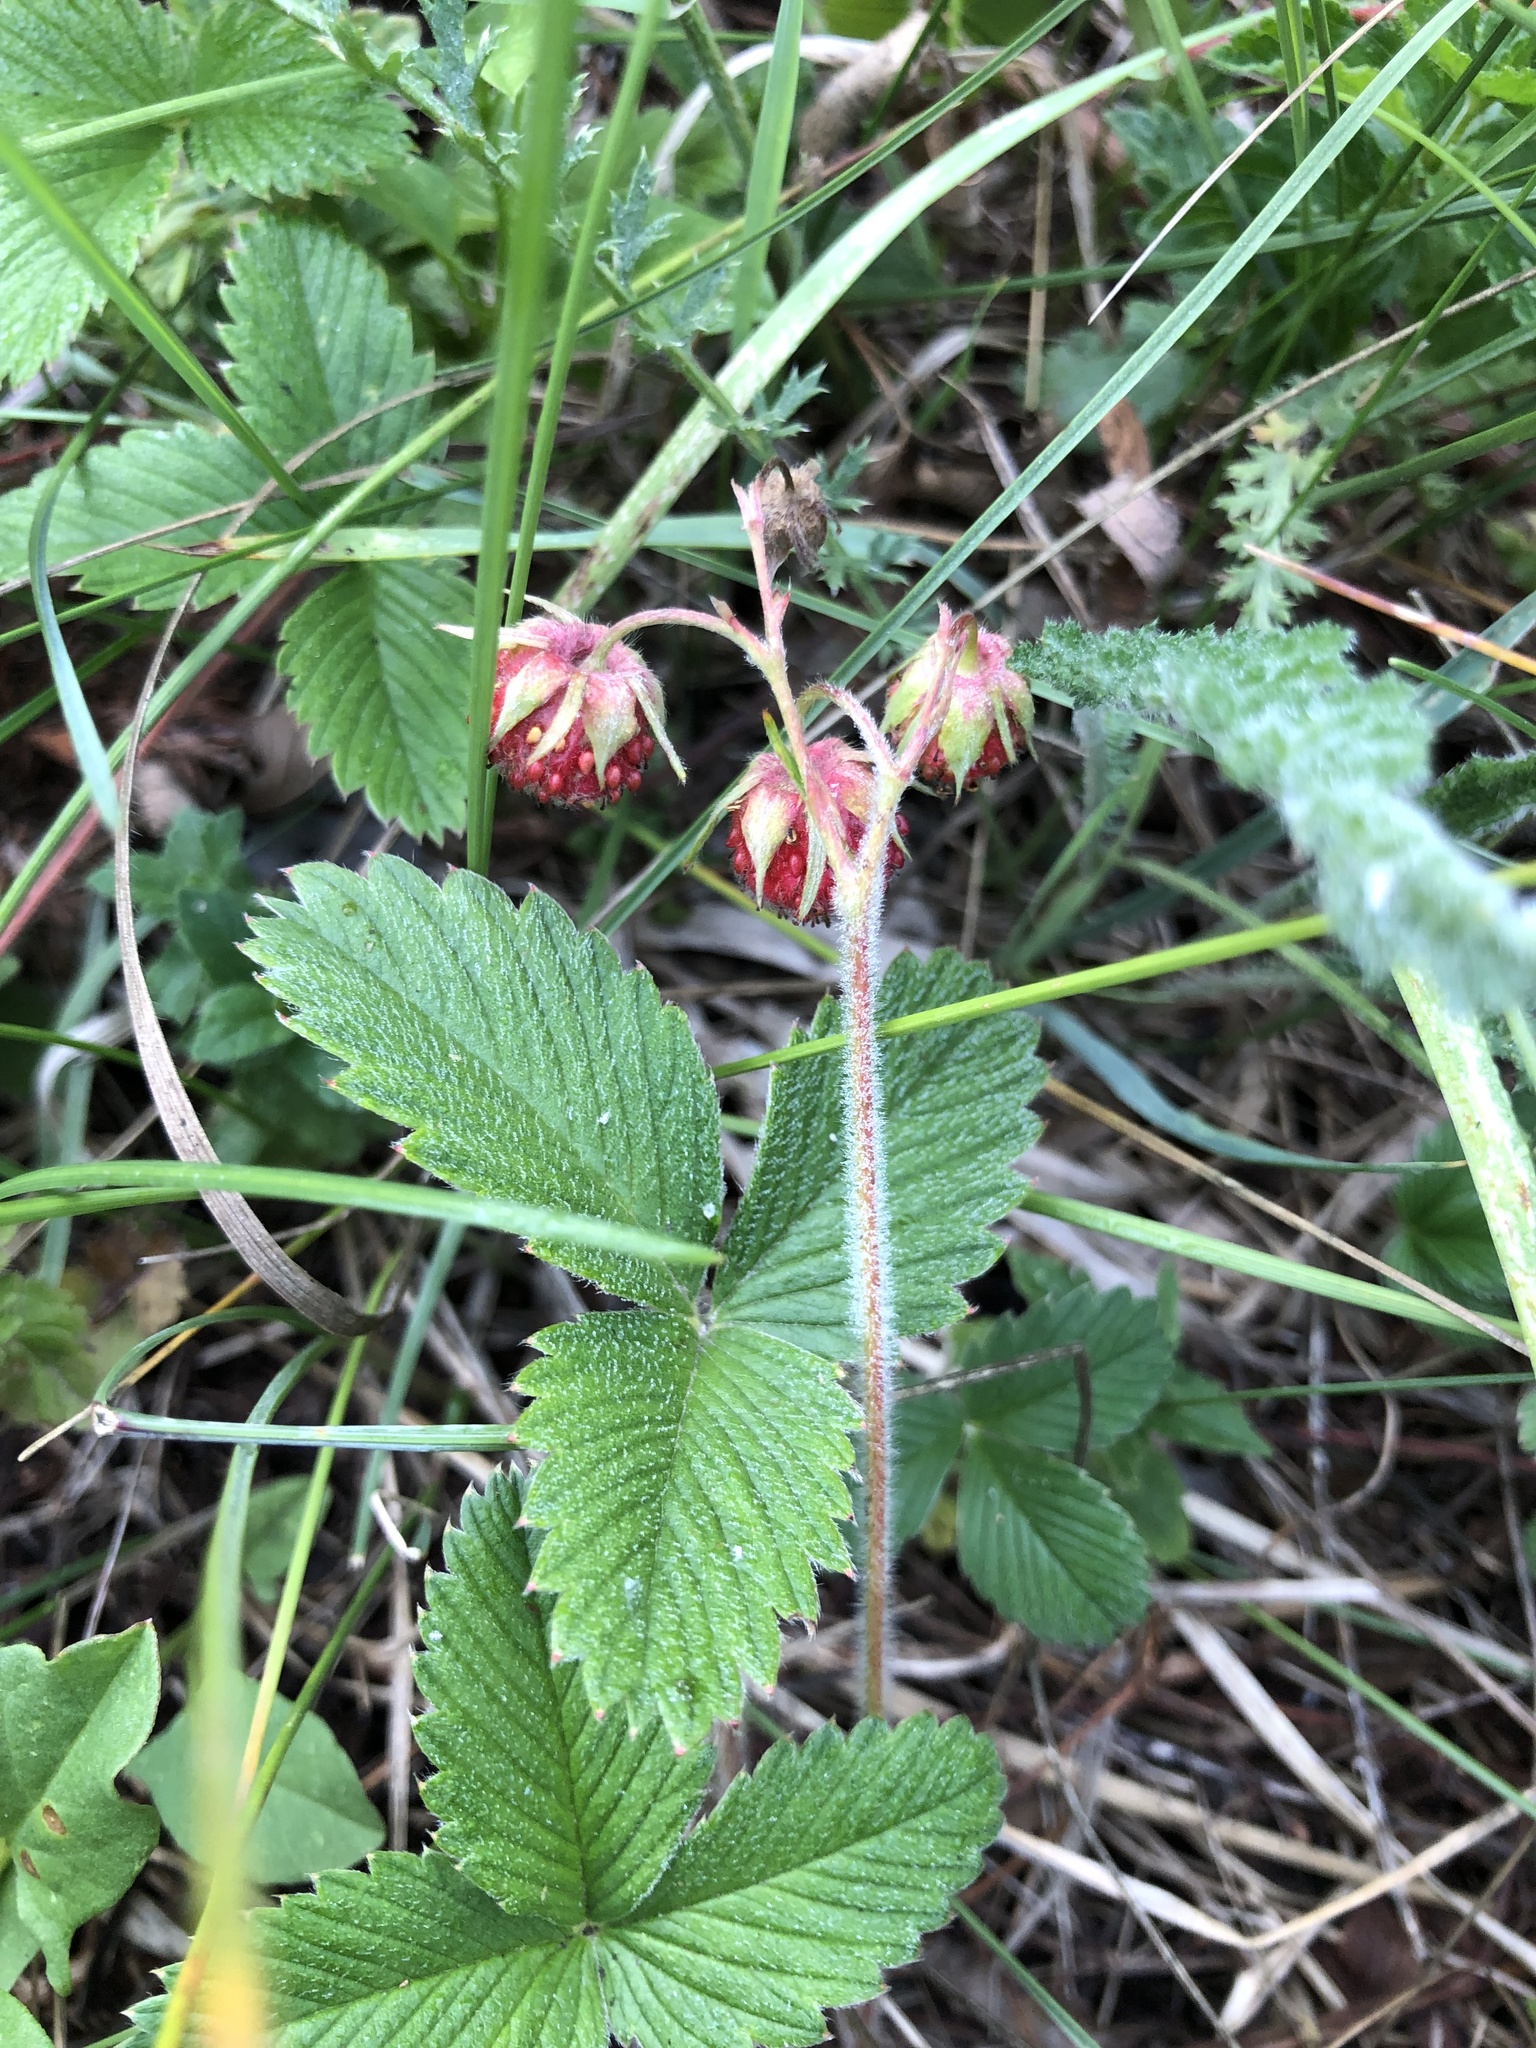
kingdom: Plantae
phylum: Tracheophyta
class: Magnoliopsida
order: Rosales
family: Rosaceae
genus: Fragaria
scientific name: Fragaria viridis
